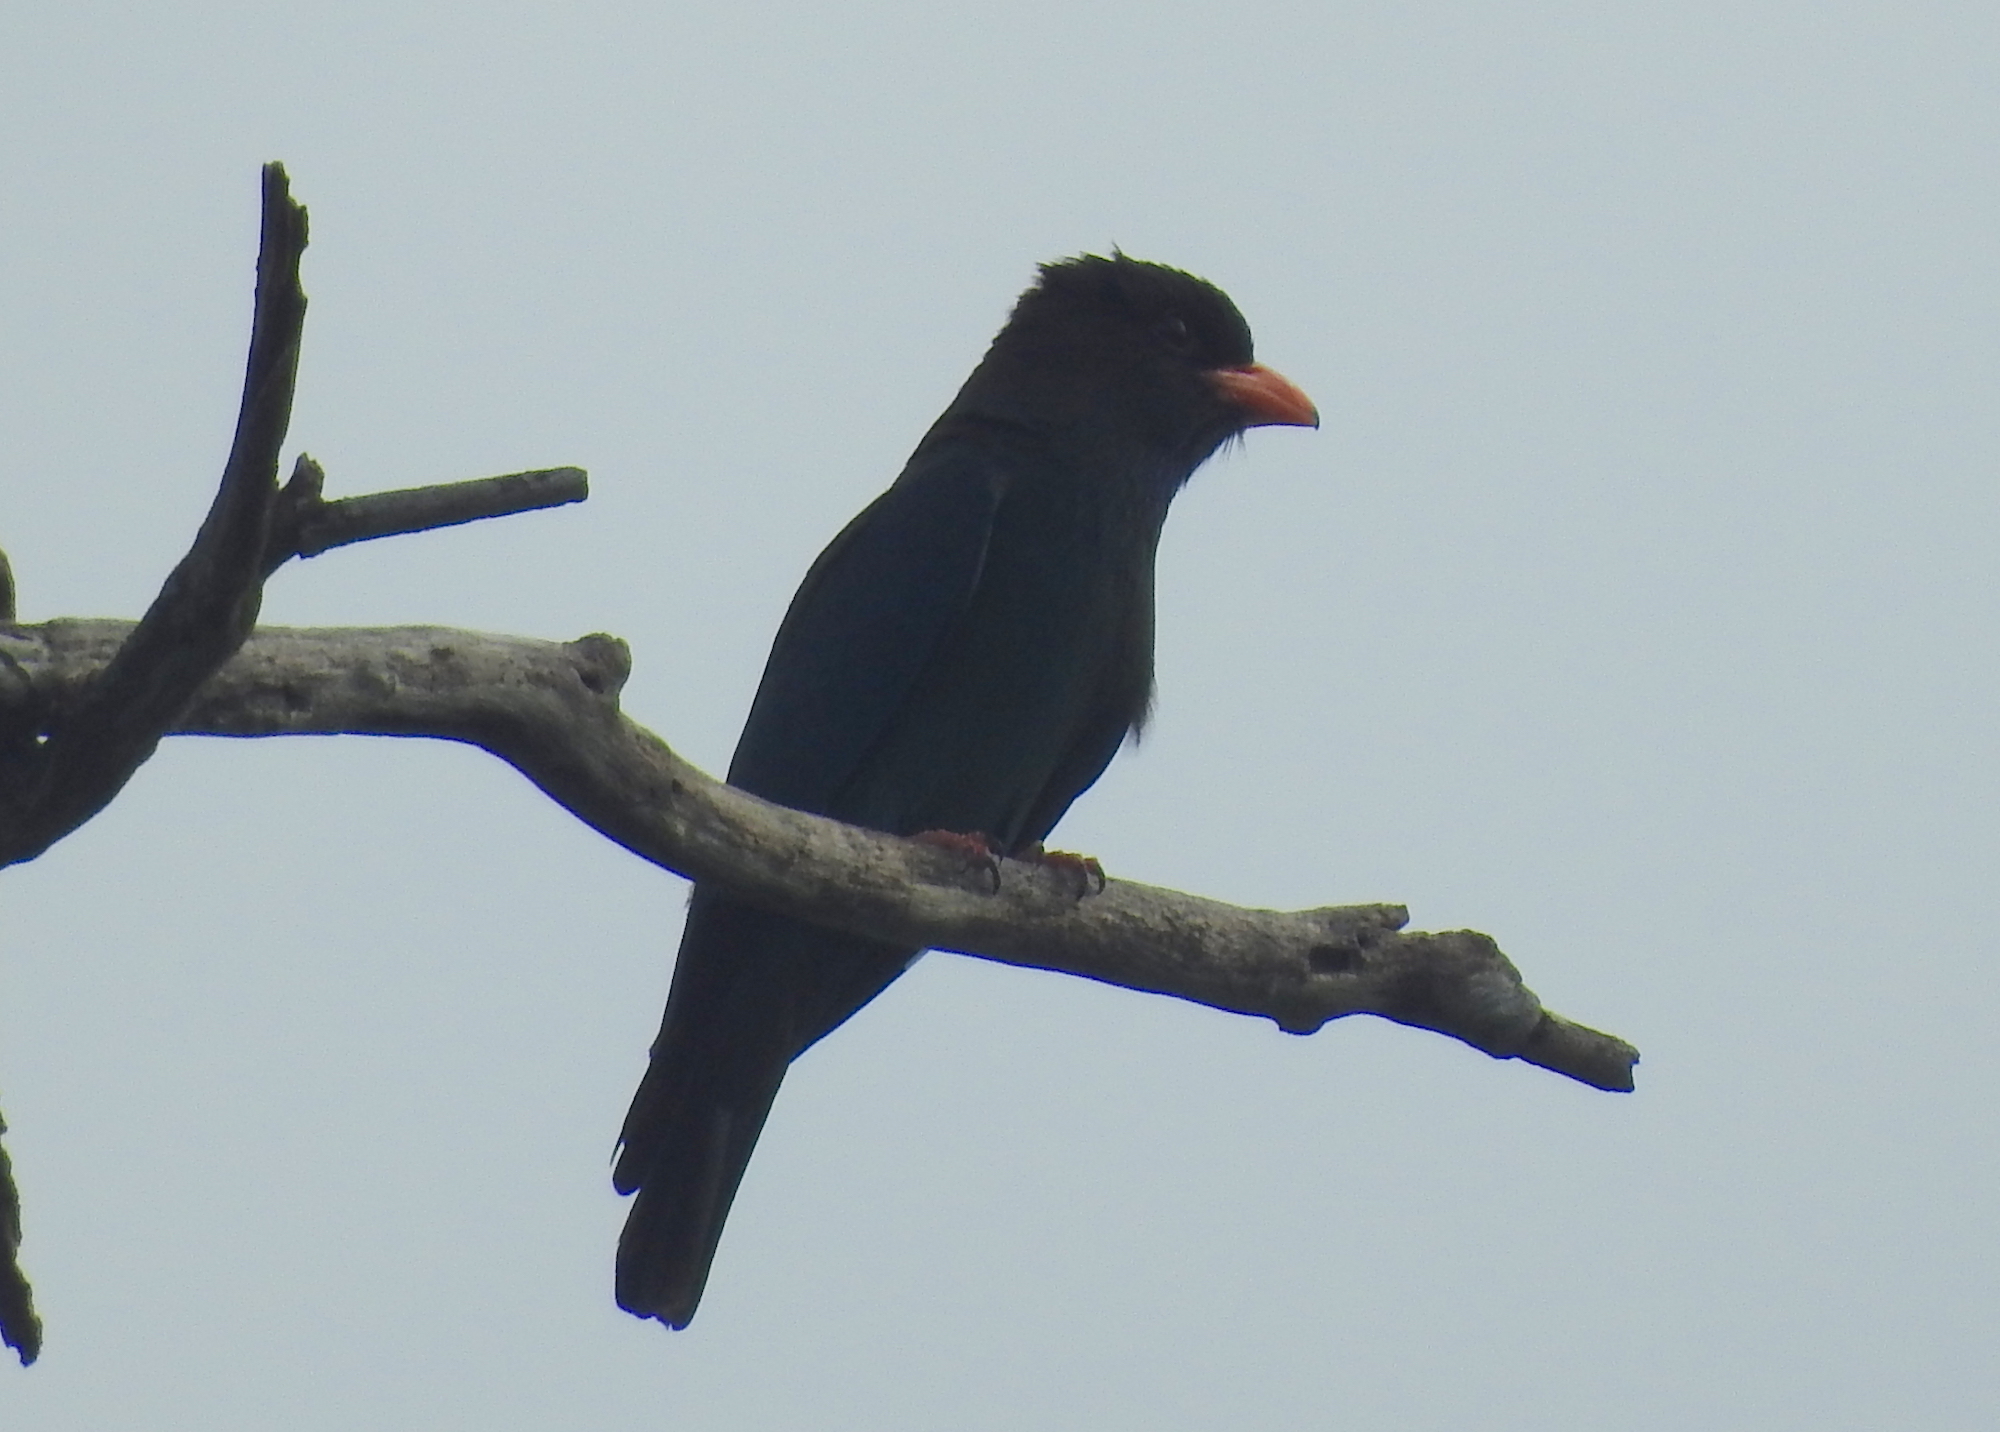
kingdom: Animalia
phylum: Chordata
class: Aves
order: Coraciiformes
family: Coraciidae
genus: Eurystomus
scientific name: Eurystomus orientalis
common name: Oriental dollarbird
